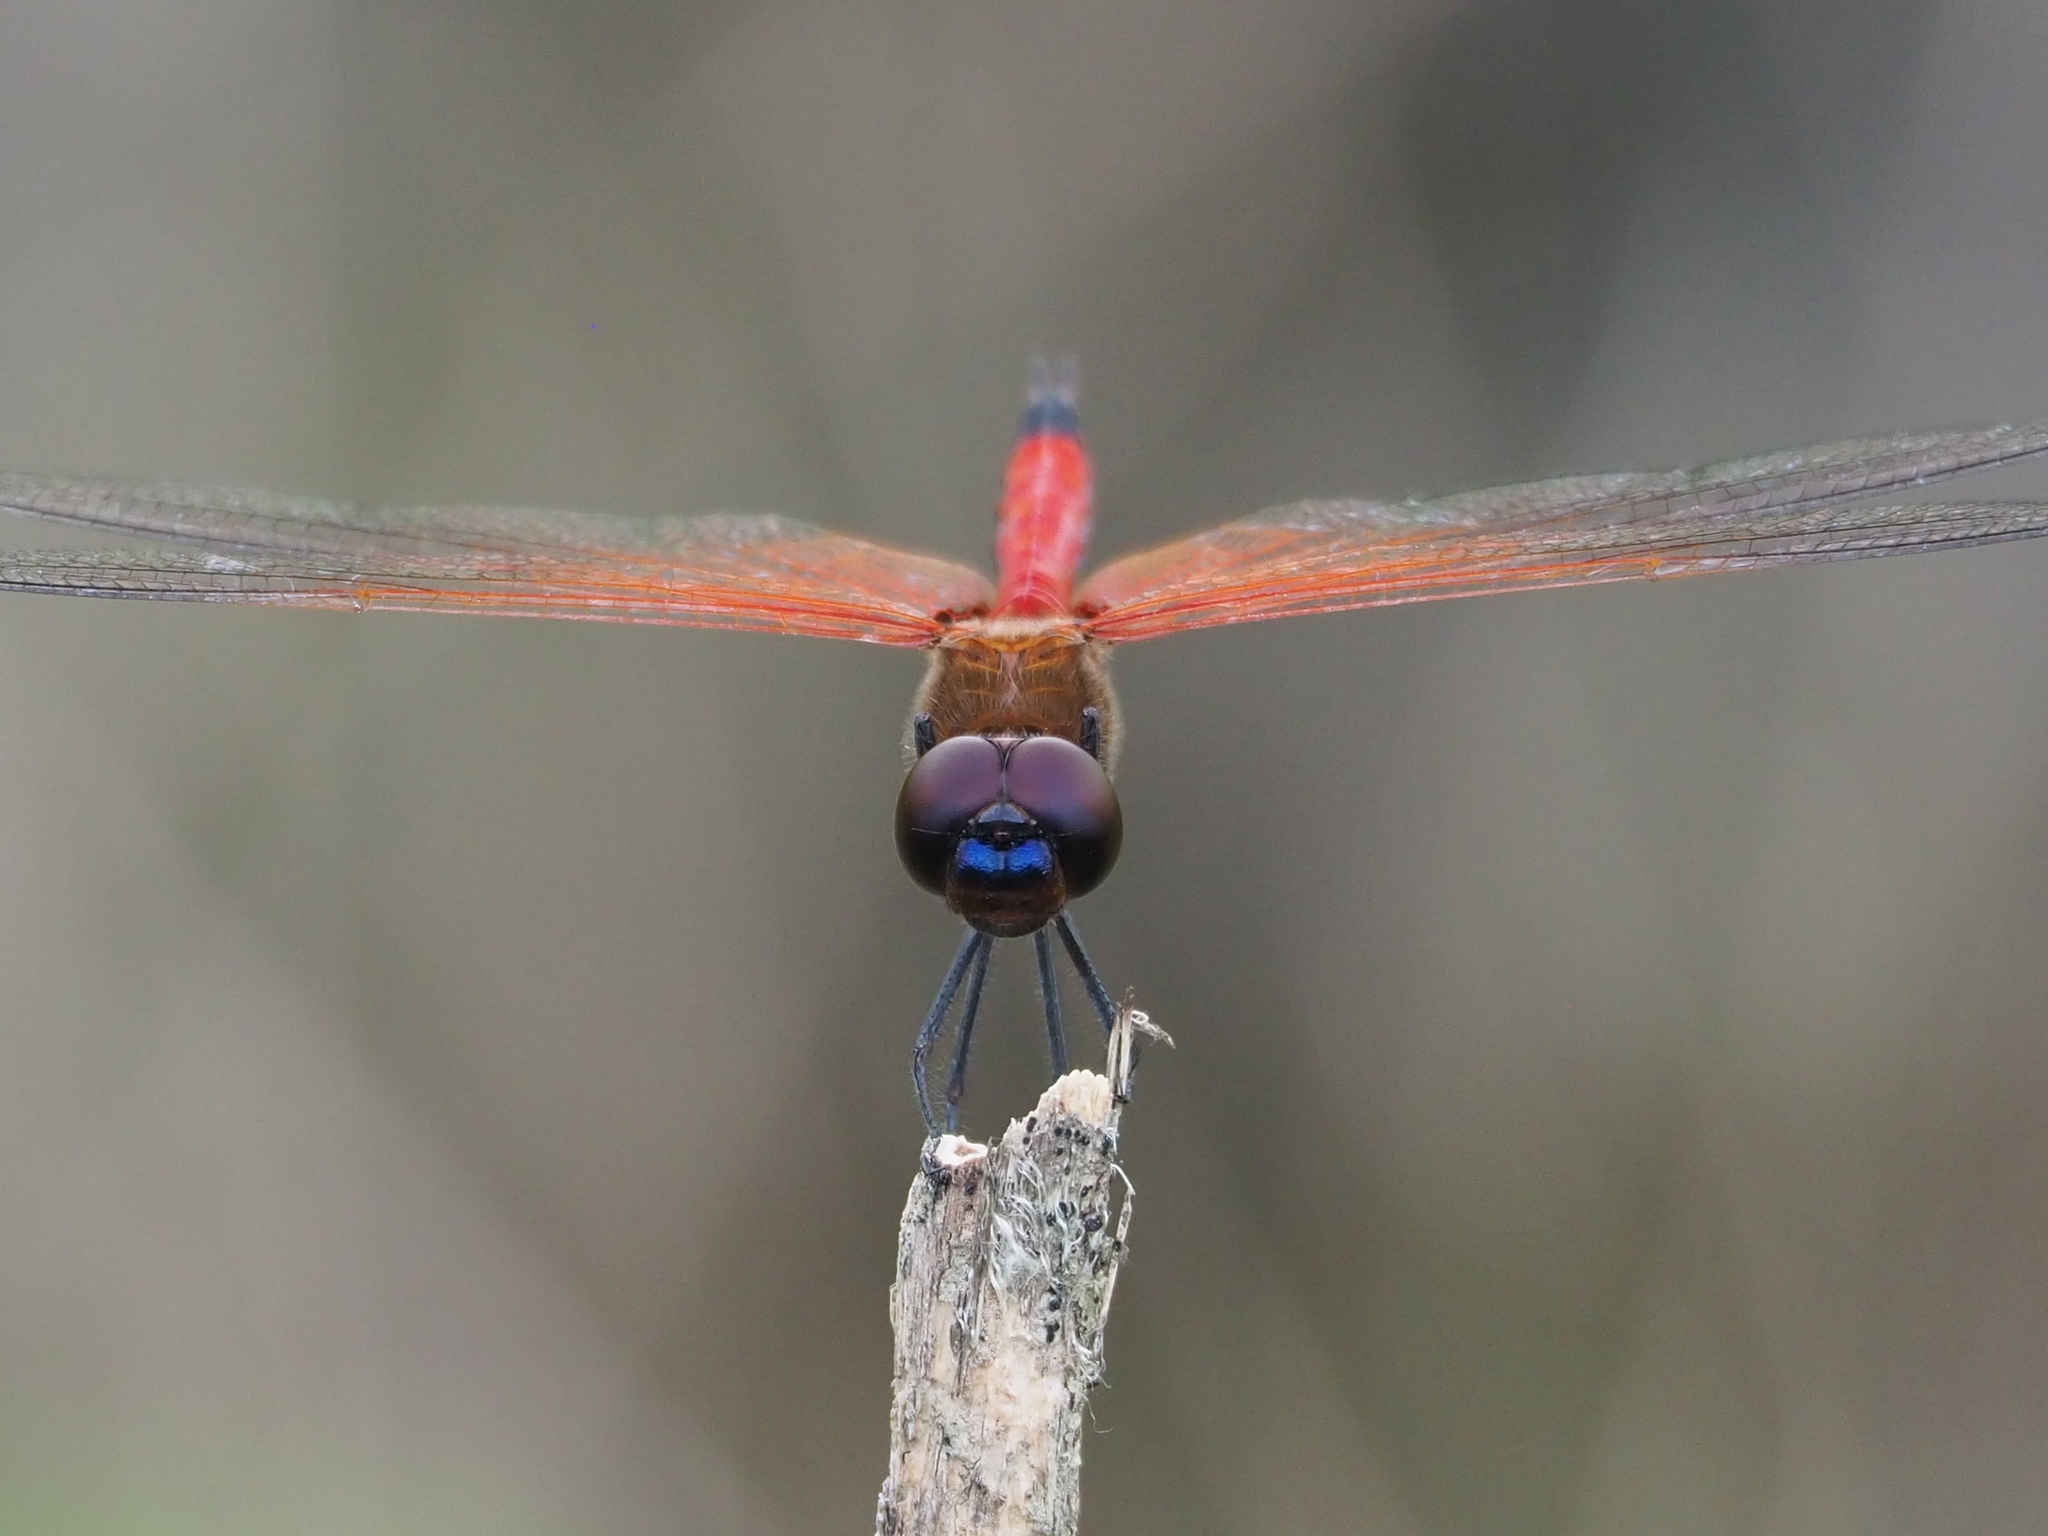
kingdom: Animalia
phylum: Arthropoda
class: Insecta
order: Odonata
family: Libellulidae
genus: Tramea
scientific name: Tramea transmarina
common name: Red glider dragonfly
